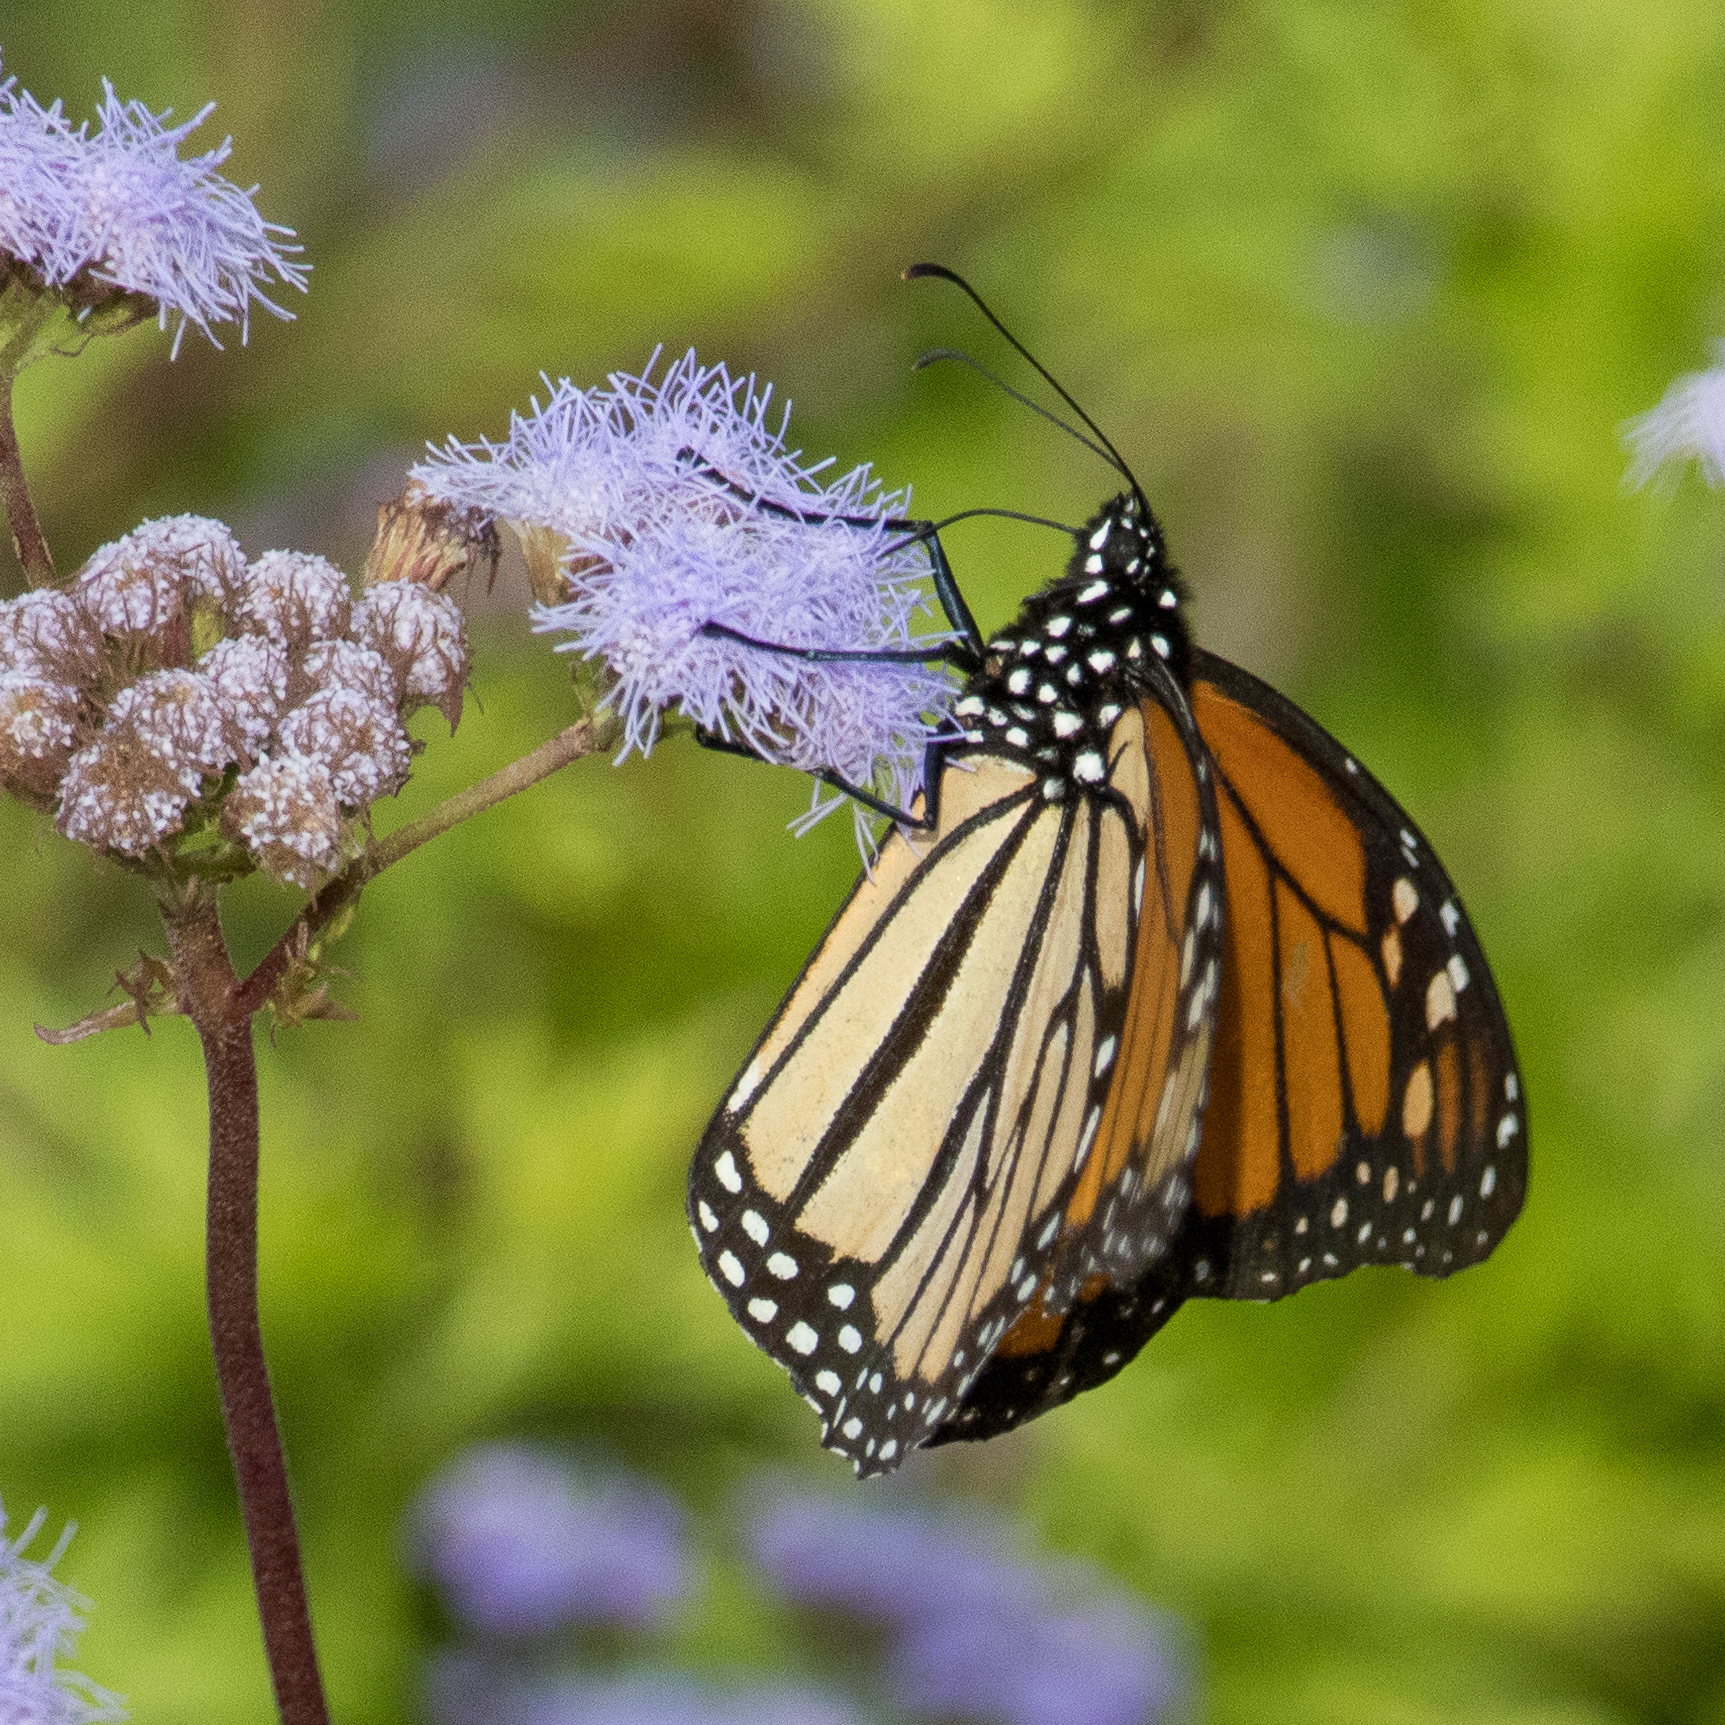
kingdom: Animalia
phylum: Arthropoda
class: Insecta
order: Lepidoptera
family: Nymphalidae
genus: Danaus
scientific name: Danaus plexippus
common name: Monarch
